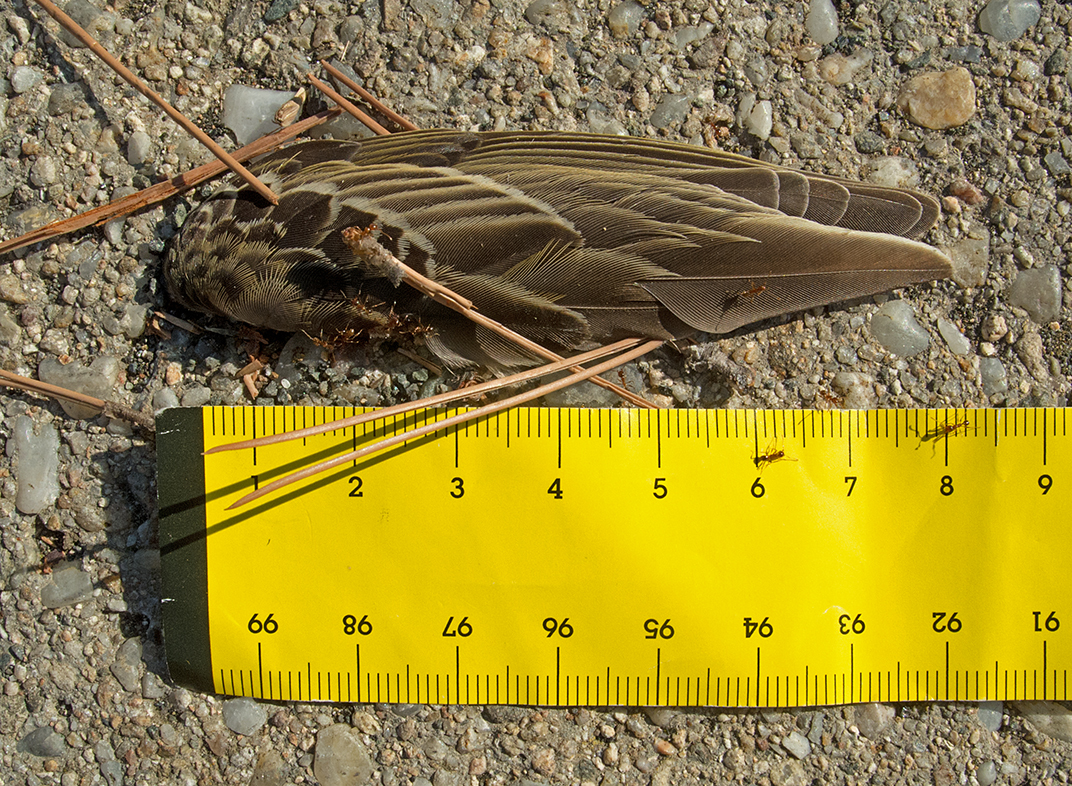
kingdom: Animalia
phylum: Chordata
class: Aves
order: Passeriformes
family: Motacillidae
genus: Anthus
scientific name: Anthus trivialis
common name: Tree pipit
